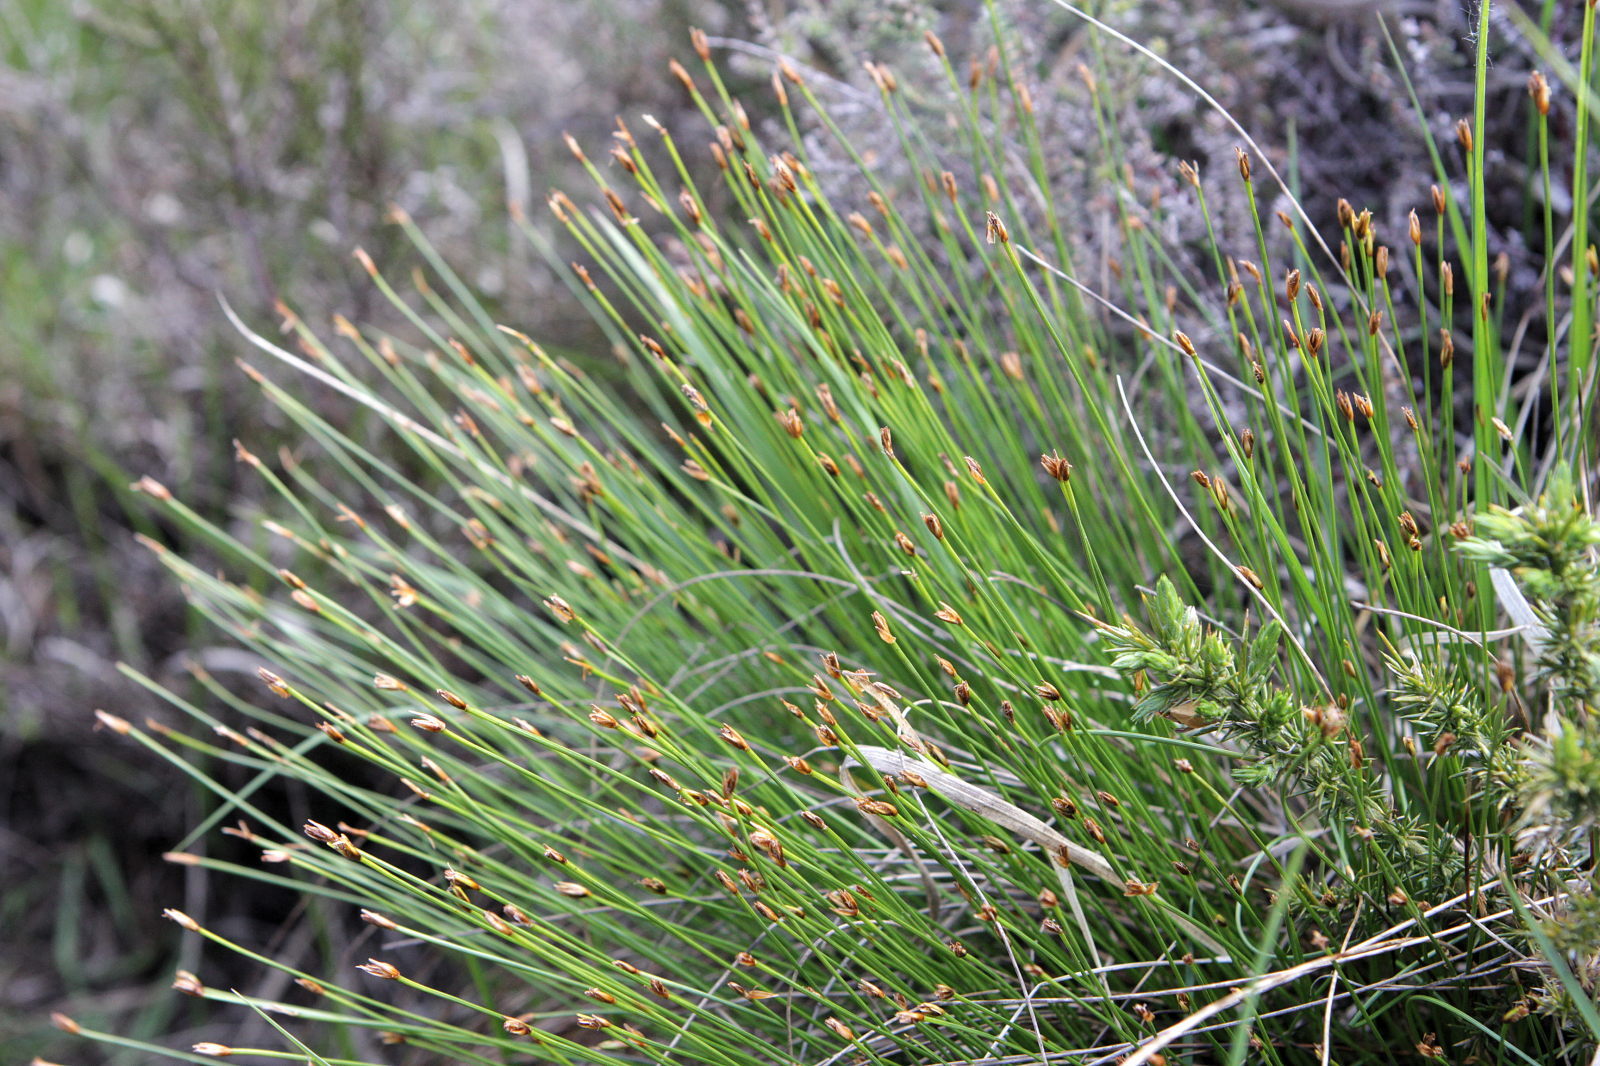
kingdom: Plantae
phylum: Tracheophyta
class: Liliopsida
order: Poales
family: Cyperaceae
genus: Trichophorum
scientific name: Trichophorum cespitosum
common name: Cespitose bulrush
